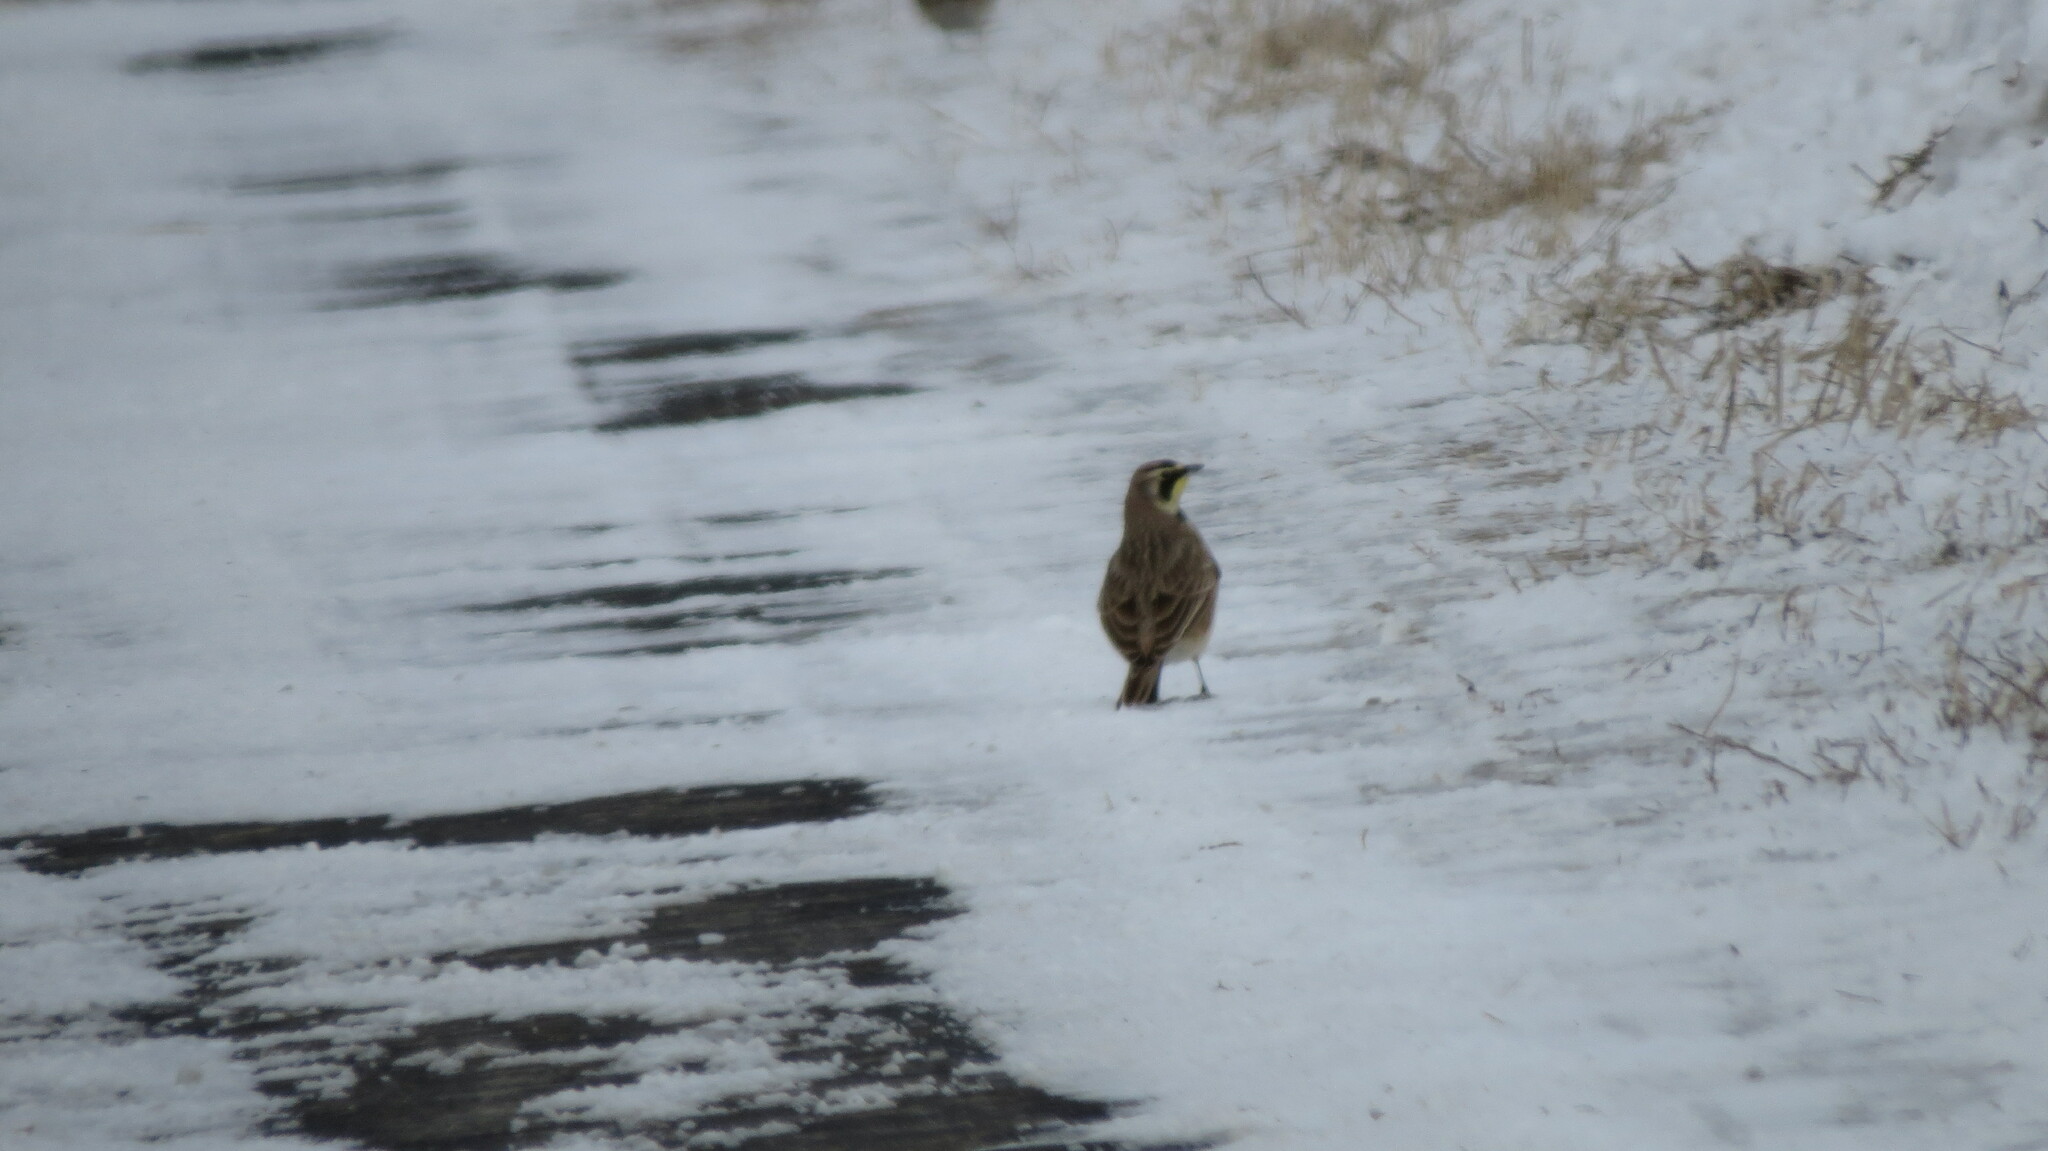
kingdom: Animalia
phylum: Chordata
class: Aves
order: Passeriformes
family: Alaudidae
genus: Eremophila
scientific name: Eremophila alpestris
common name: Horned lark
